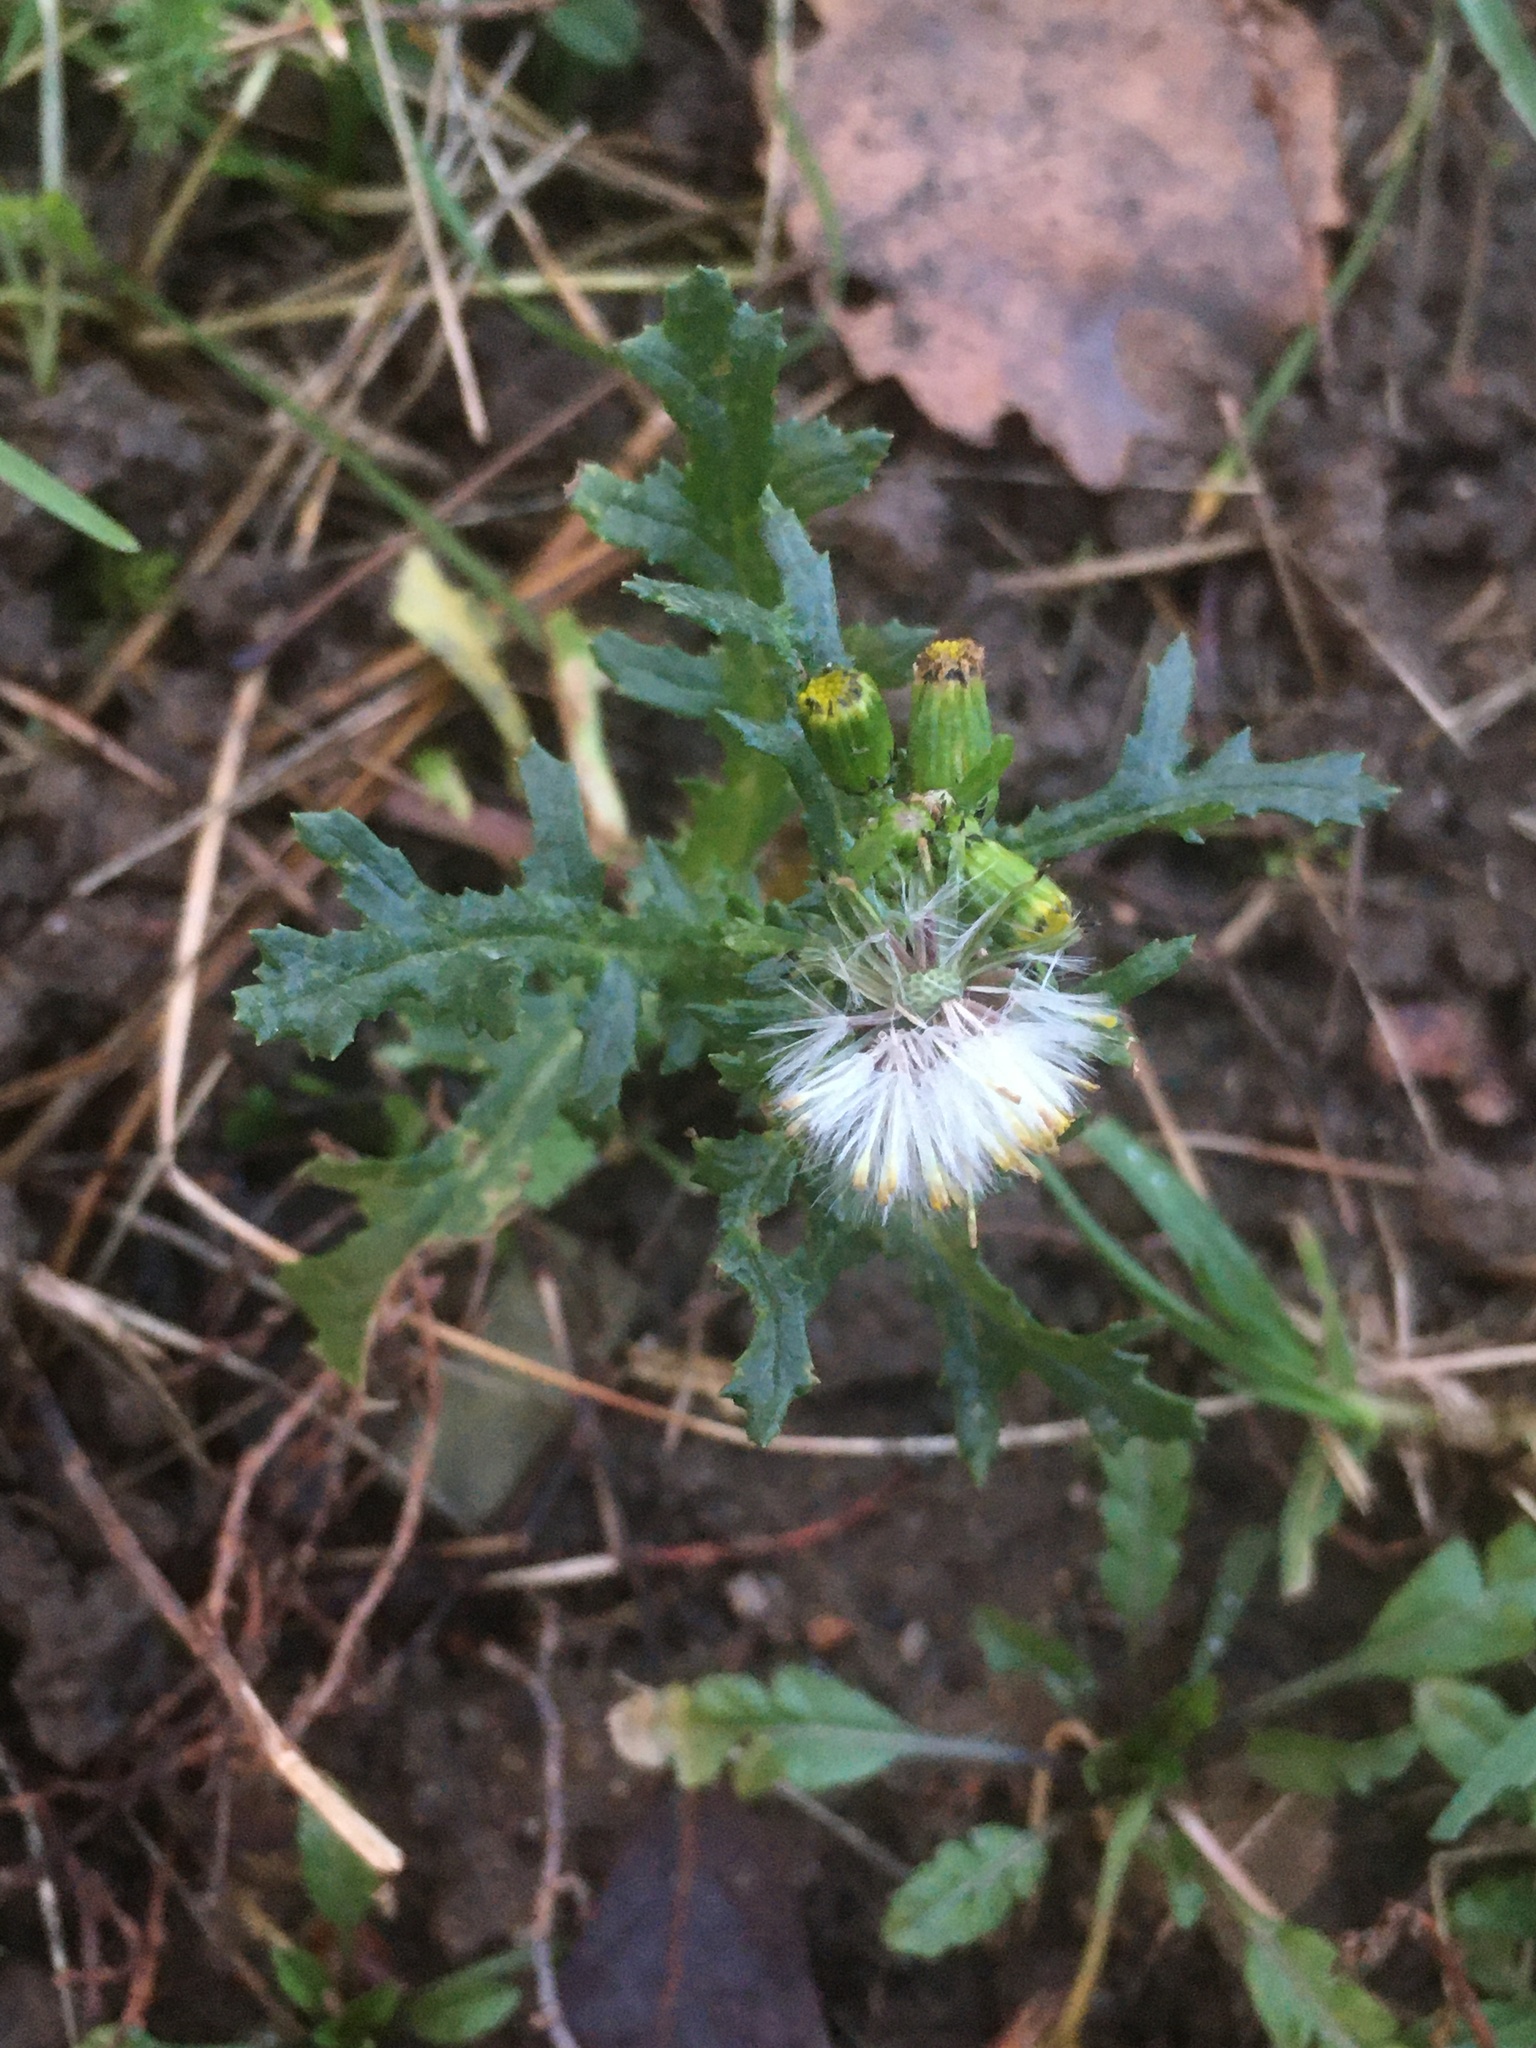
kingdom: Plantae
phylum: Tracheophyta
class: Magnoliopsida
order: Asterales
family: Asteraceae
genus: Senecio
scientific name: Senecio vulgaris
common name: Old-man-in-the-spring
